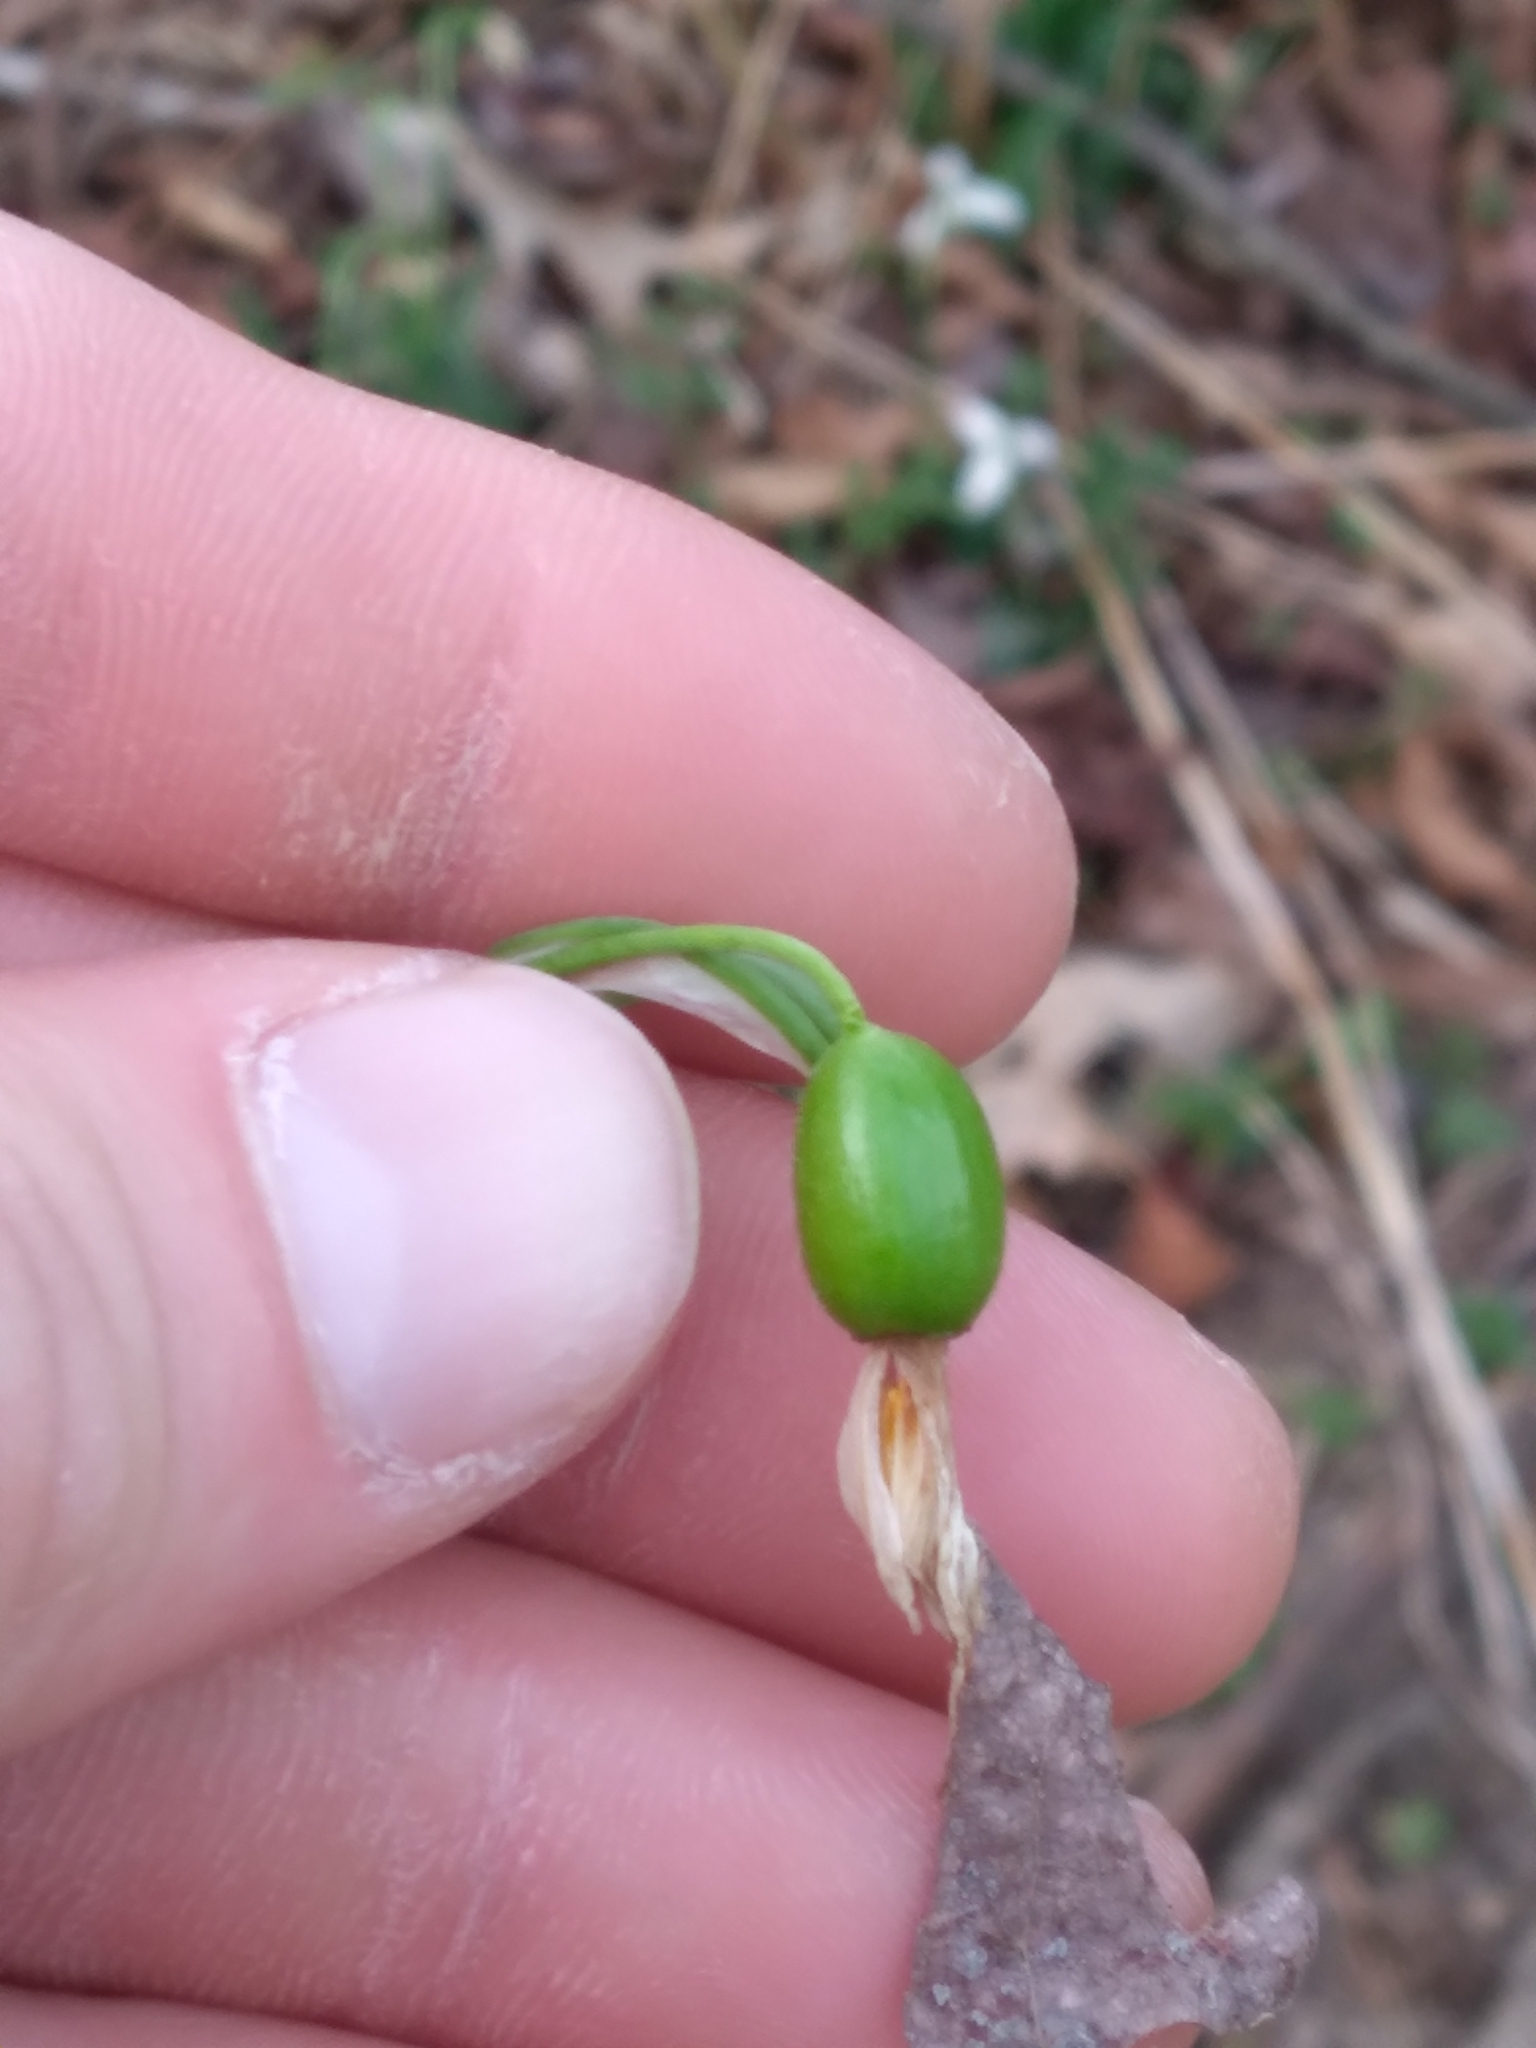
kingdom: Plantae
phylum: Tracheophyta
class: Liliopsida
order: Asparagales
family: Amaryllidaceae
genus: Galanthus
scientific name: Galanthus nivalis
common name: Snowdrop
